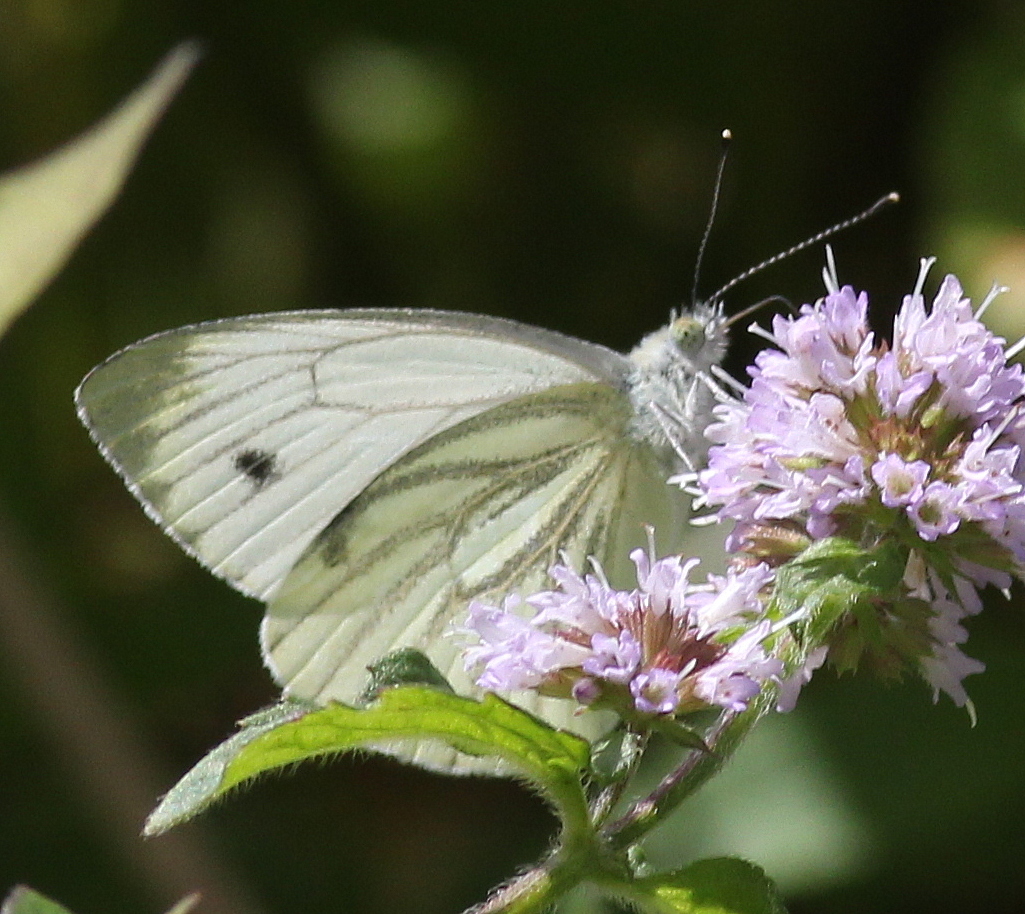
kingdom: Animalia
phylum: Arthropoda
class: Insecta
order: Lepidoptera
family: Pieridae
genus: Pieris
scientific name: Pieris napi
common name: Green-veined white
